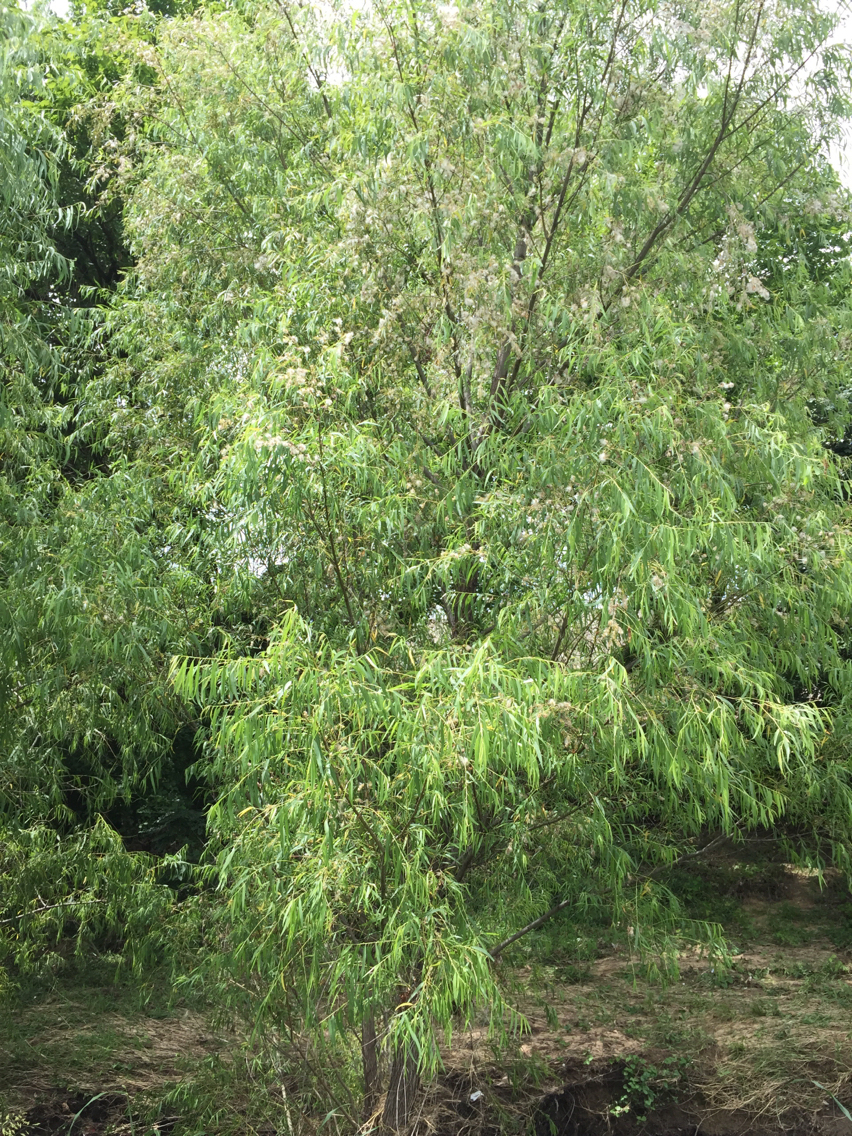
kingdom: Plantae
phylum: Tracheophyta
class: Magnoliopsida
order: Malpighiales
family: Salicaceae
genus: Salix
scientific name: Salix nigra
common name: Black willow
